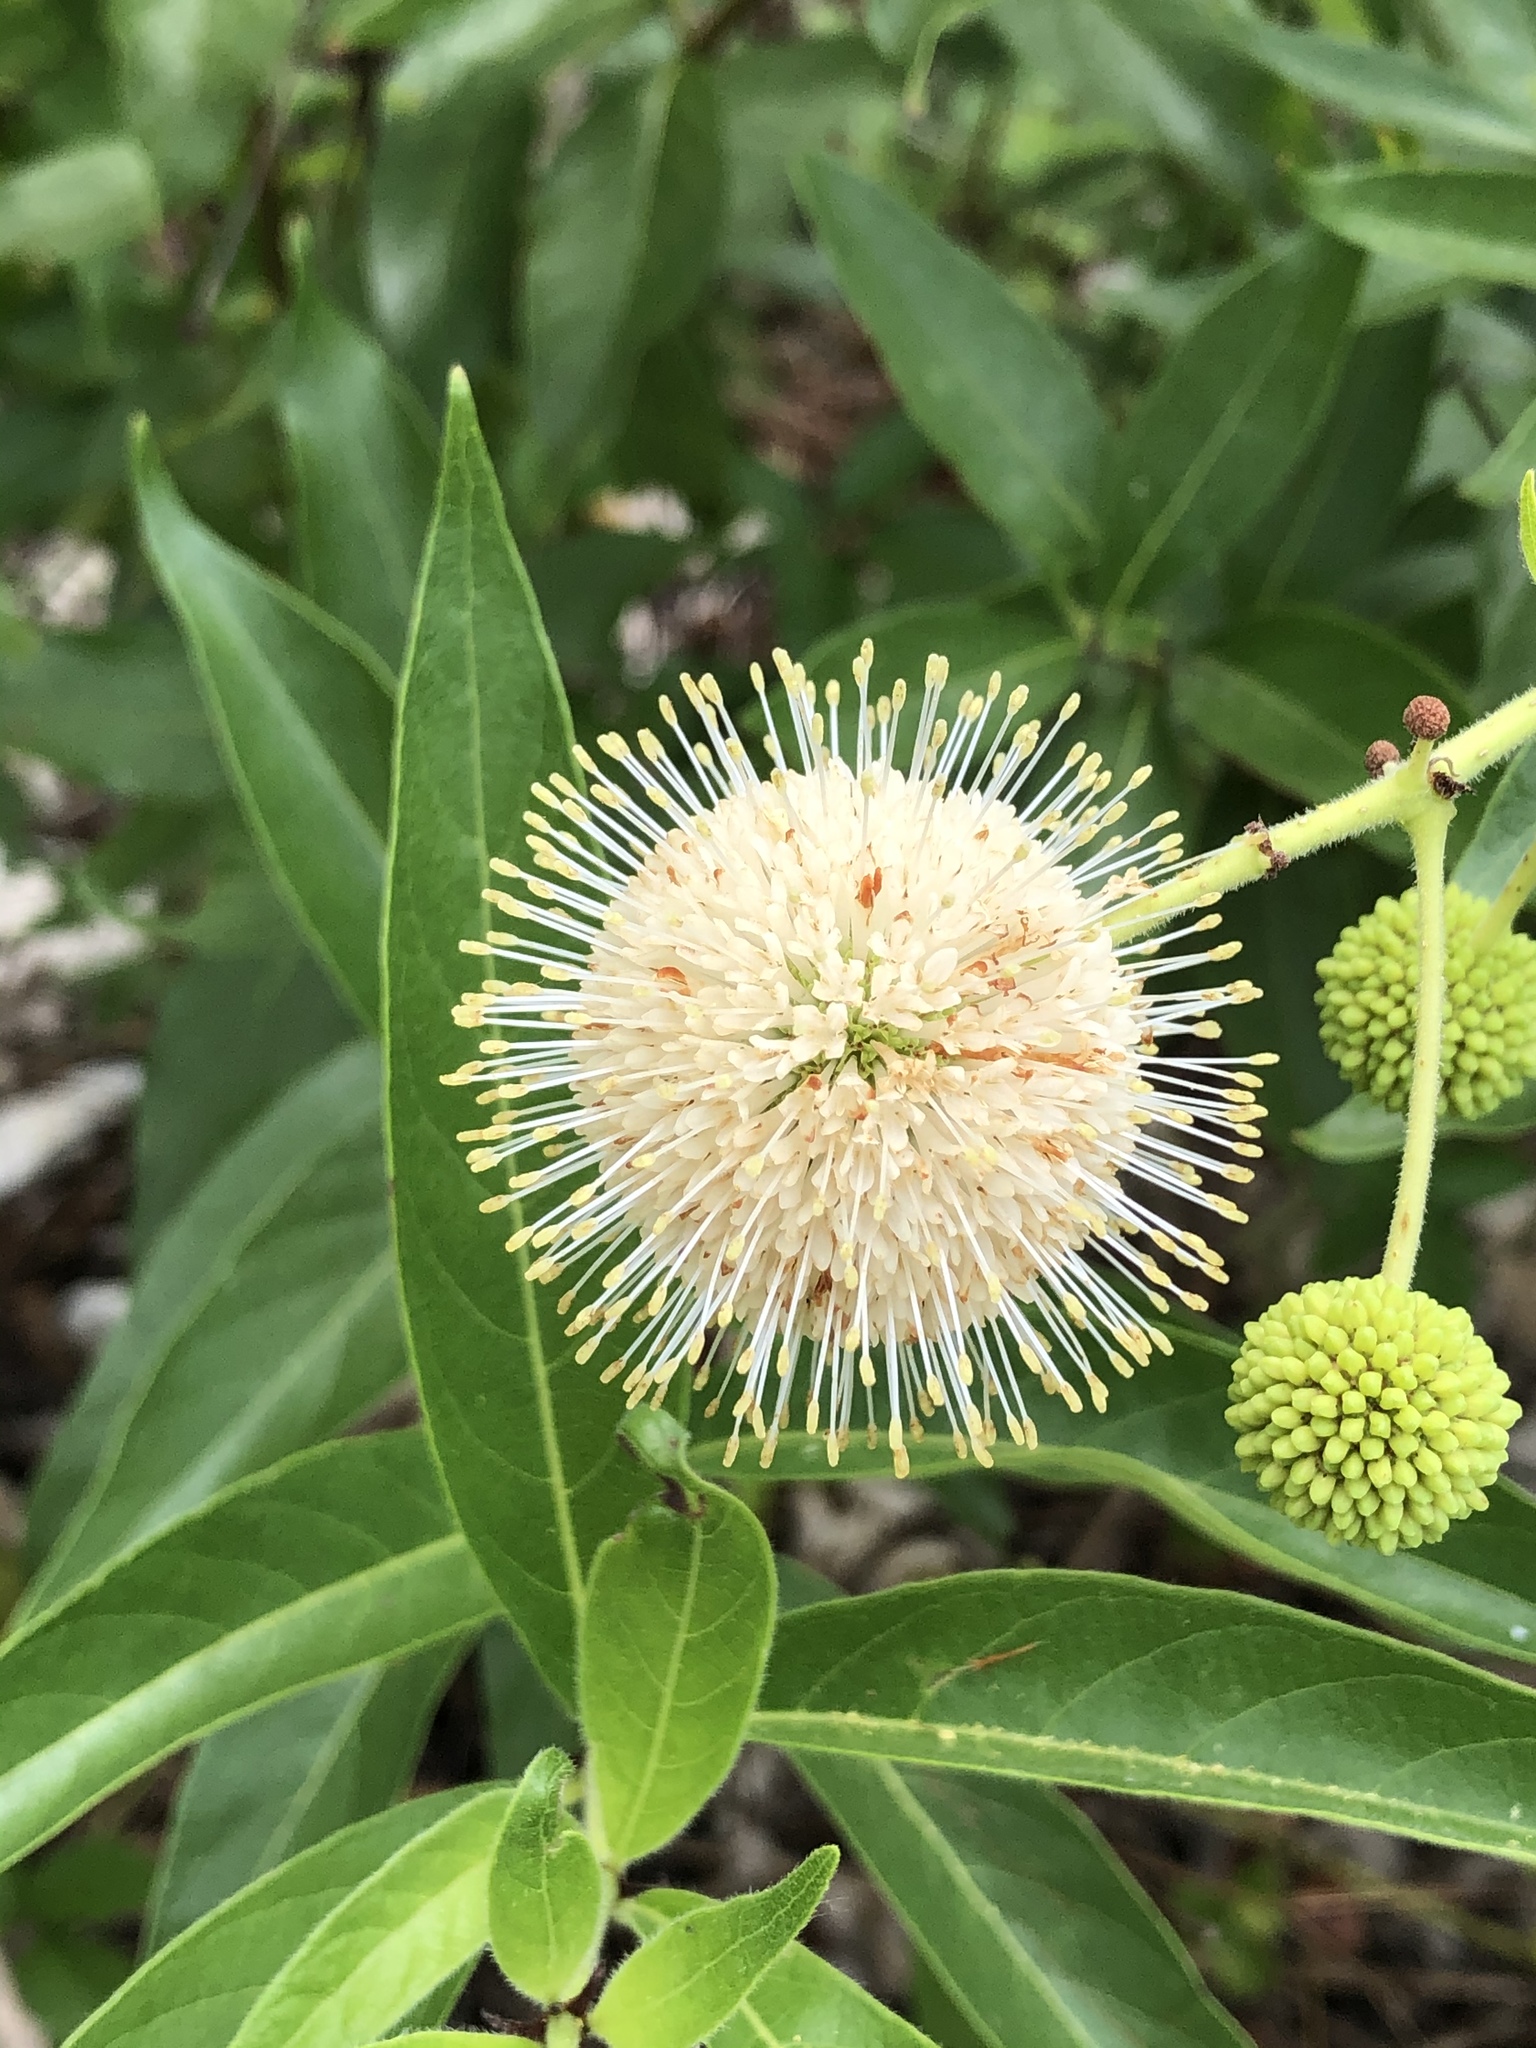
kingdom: Plantae
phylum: Tracheophyta
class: Magnoliopsida
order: Gentianales
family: Rubiaceae
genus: Cephalanthus
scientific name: Cephalanthus occidentalis
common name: Button-willow
